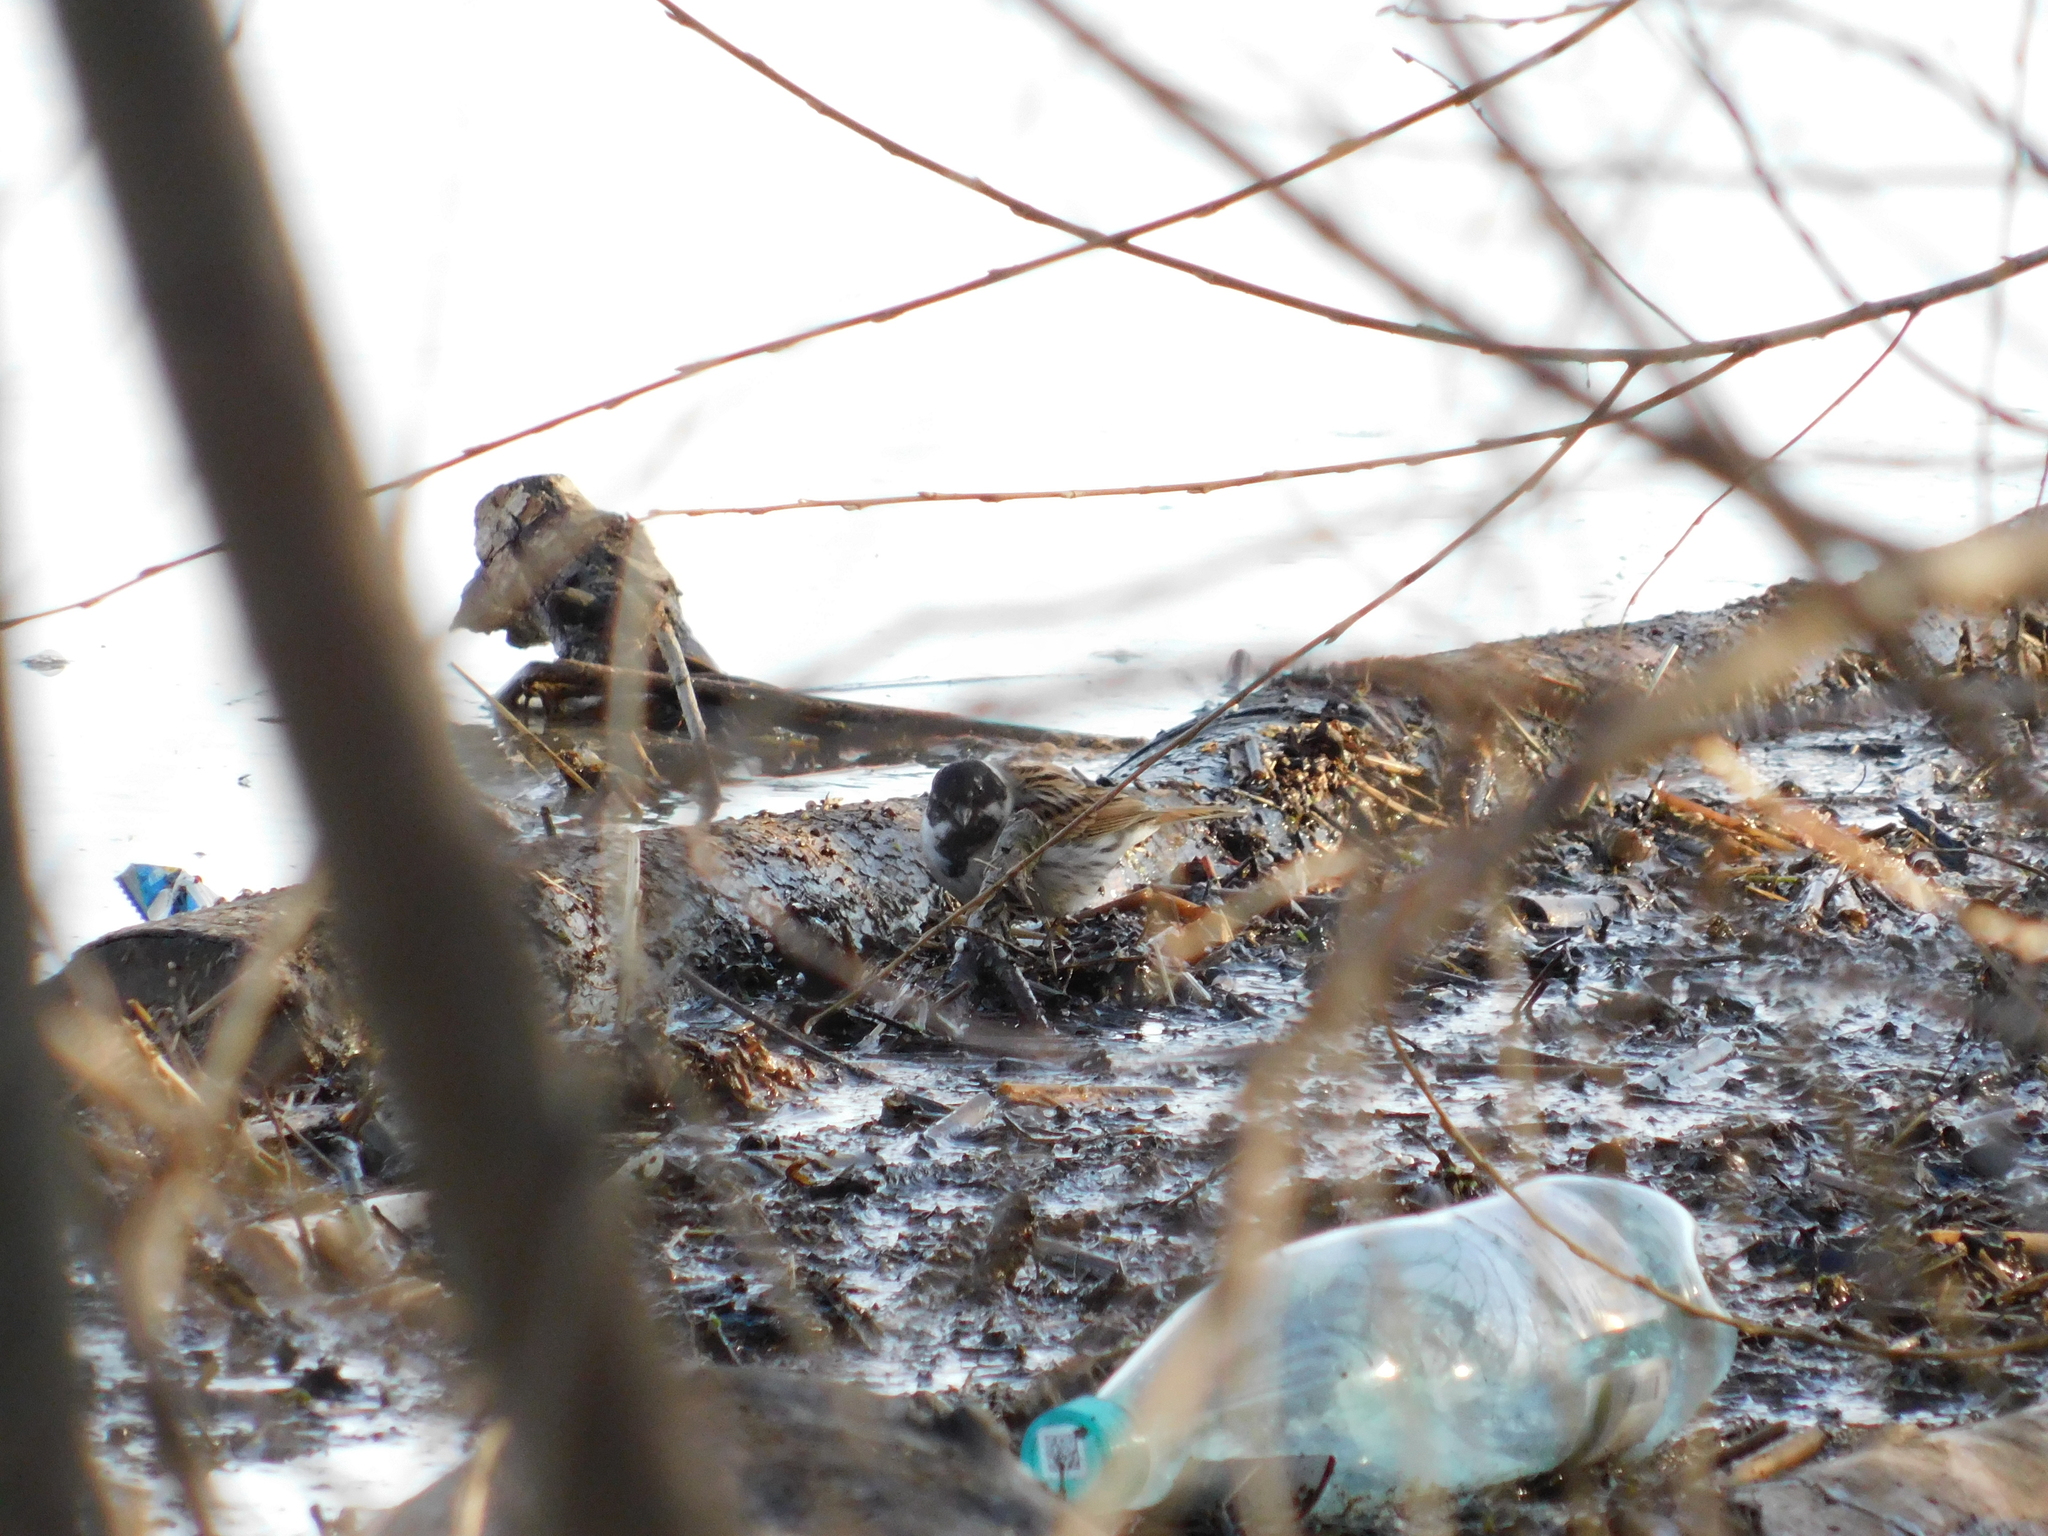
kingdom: Animalia
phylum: Chordata
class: Aves
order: Passeriformes
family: Emberizidae
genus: Emberiza
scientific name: Emberiza schoeniclus
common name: Reed bunting
